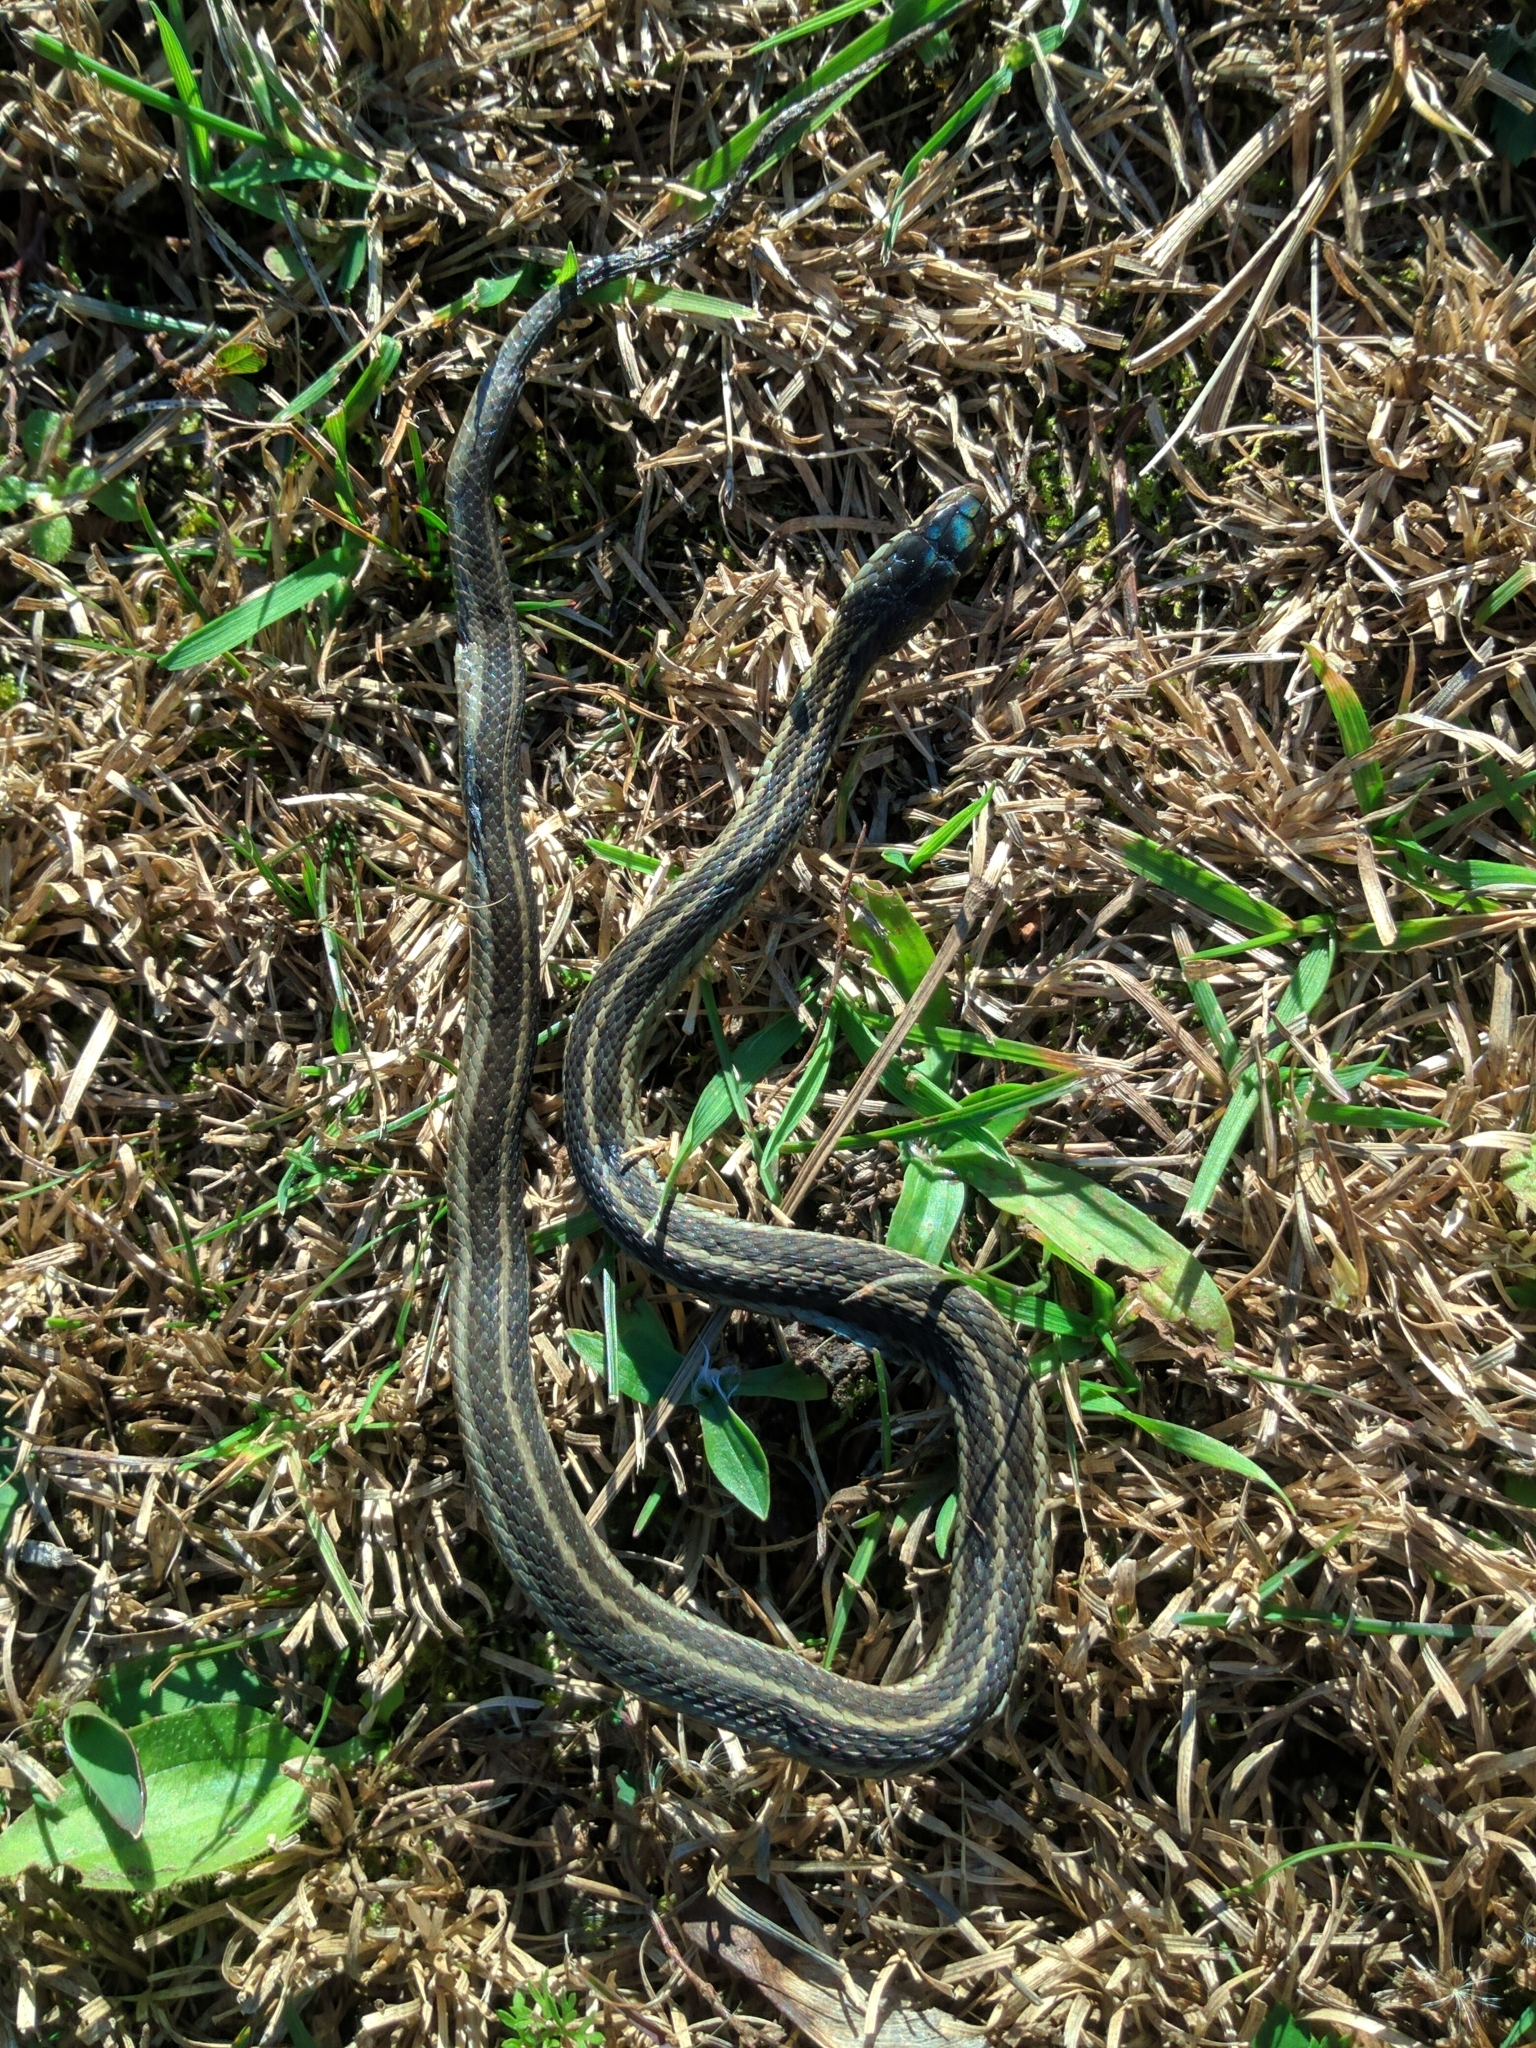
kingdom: Animalia
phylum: Chordata
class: Squamata
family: Colubridae
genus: Thamnophis
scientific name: Thamnophis sirtalis
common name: Common garter snake
